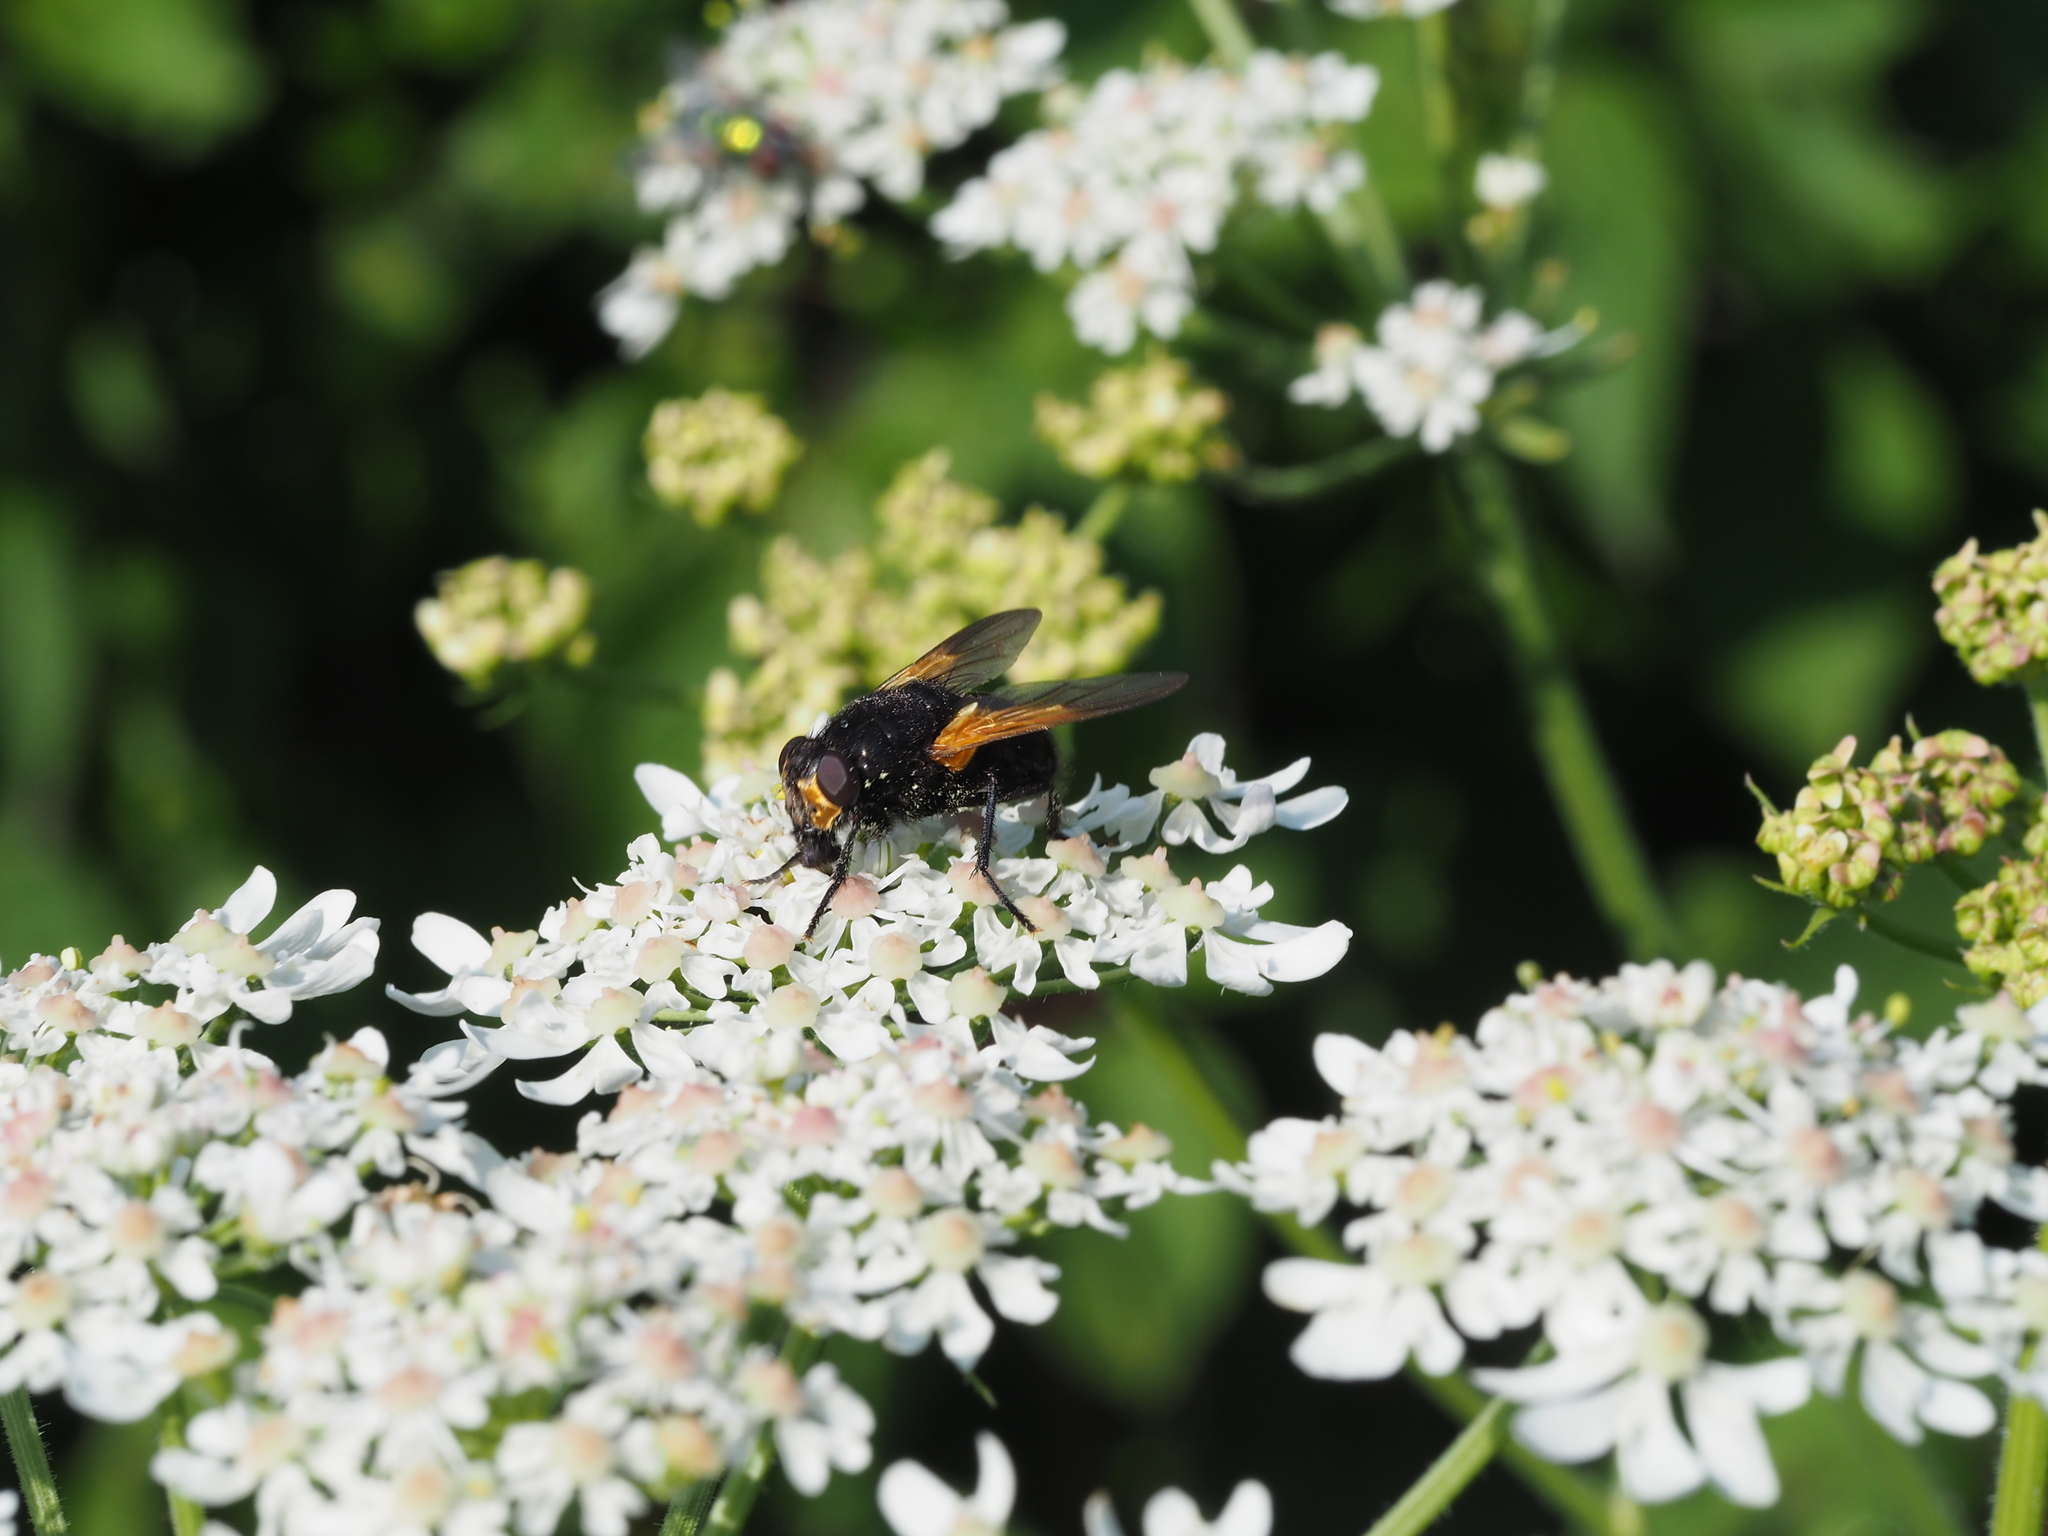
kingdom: Animalia
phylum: Arthropoda
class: Insecta
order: Diptera
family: Muscidae
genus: Mesembrina
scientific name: Mesembrina meridiana
